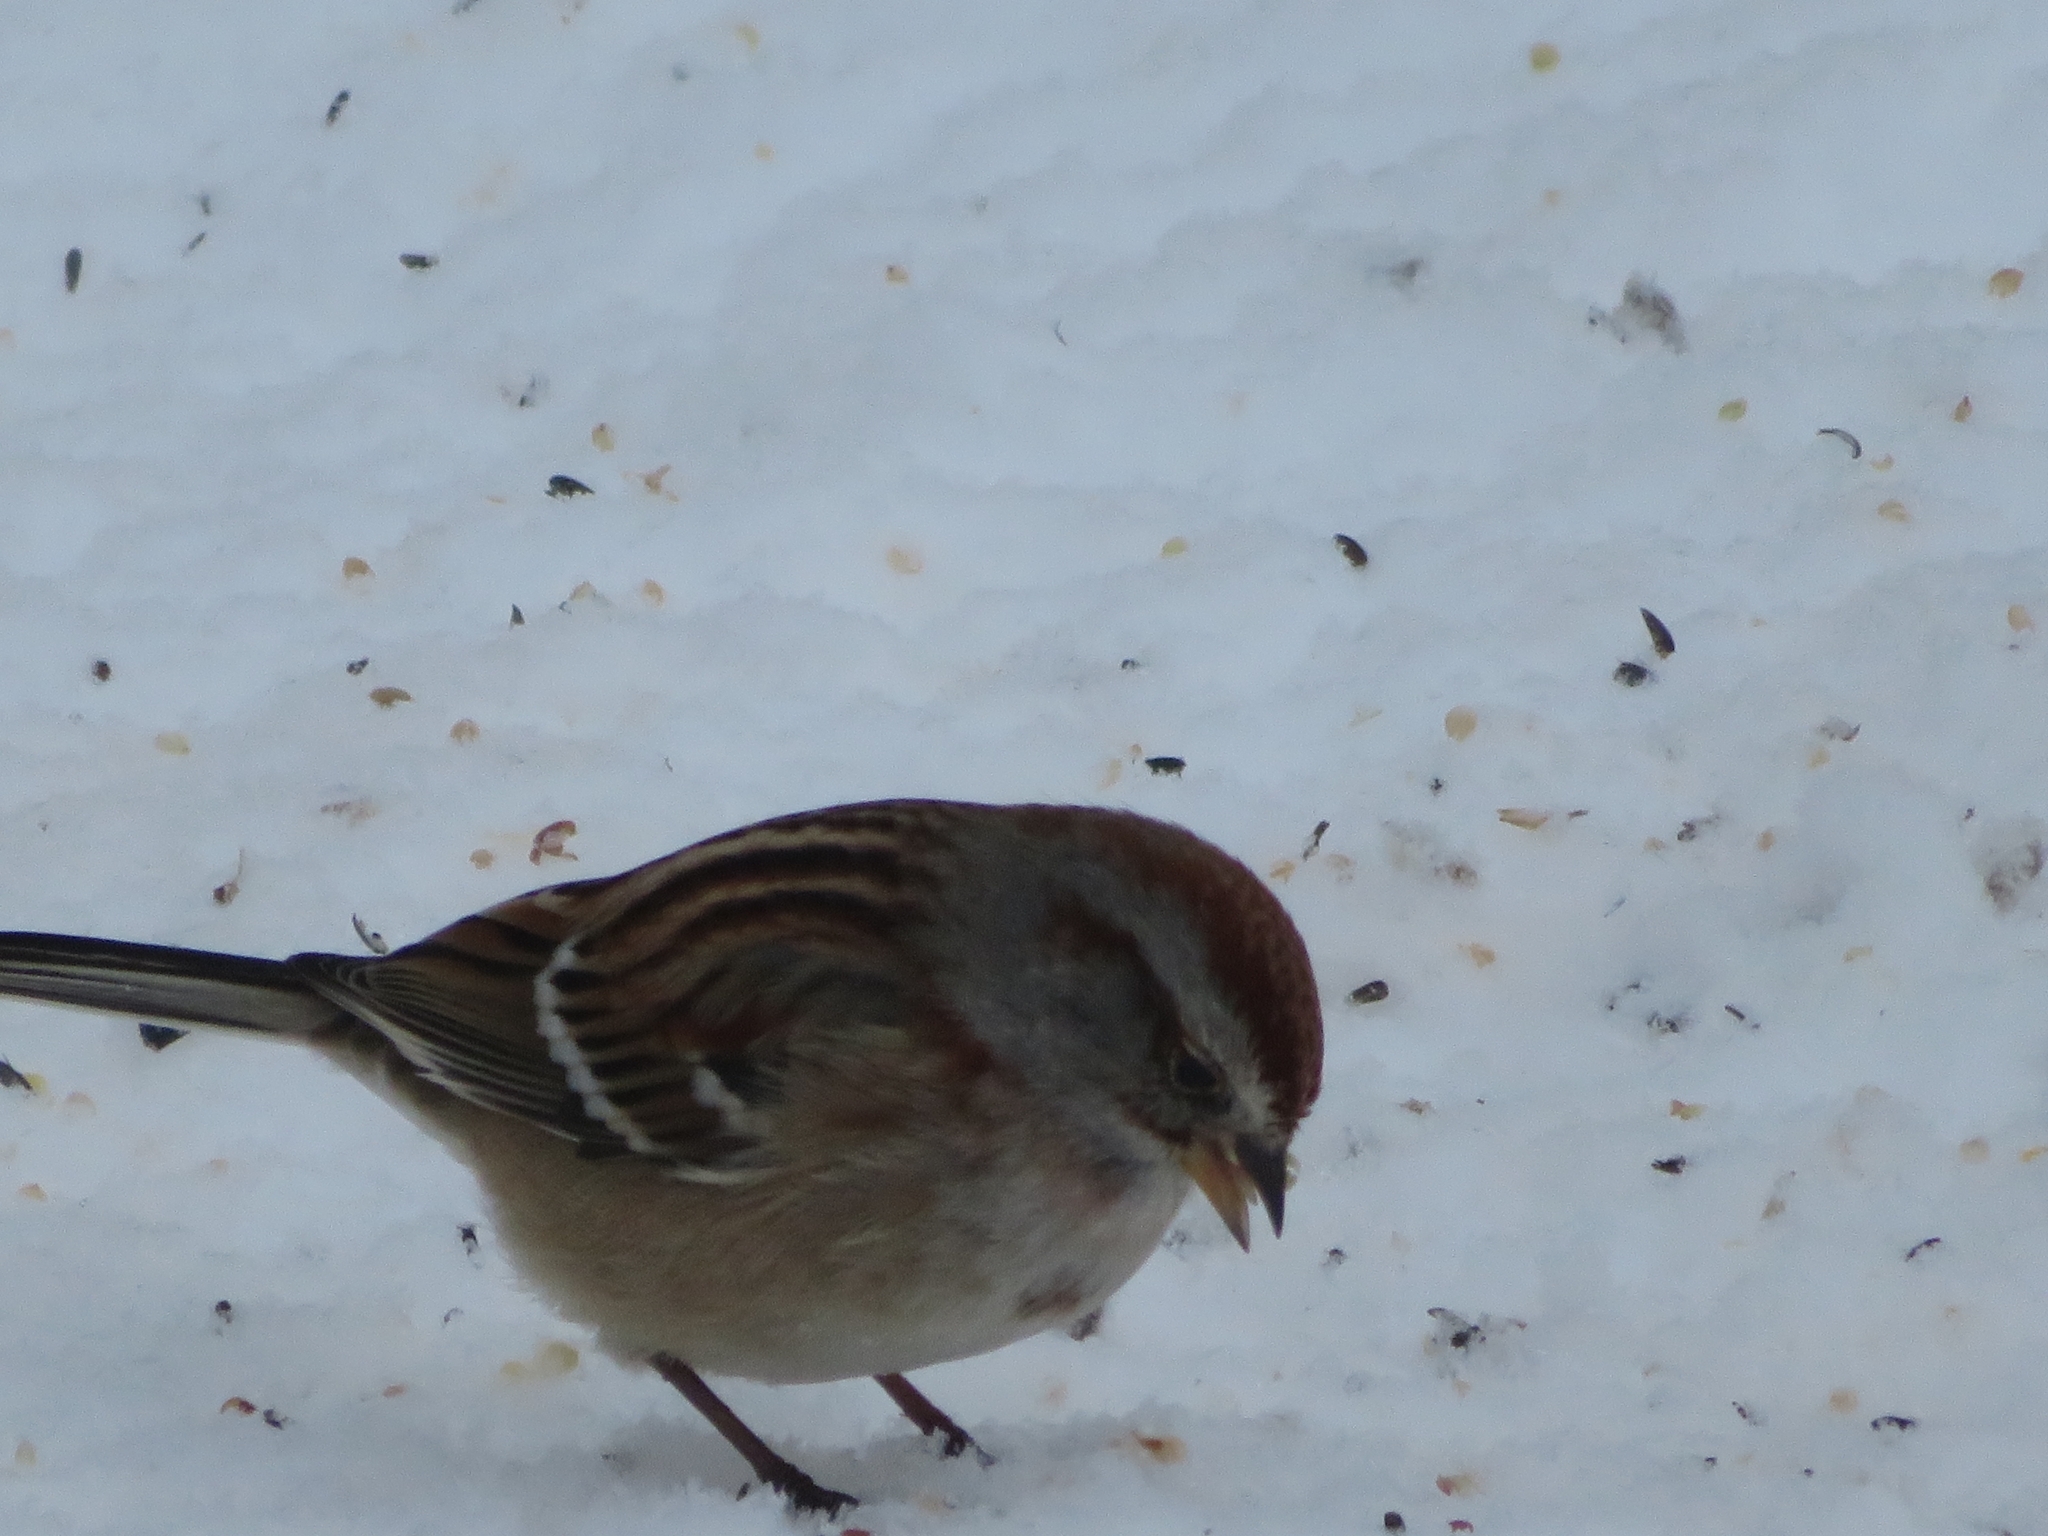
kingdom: Animalia
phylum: Chordata
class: Aves
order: Passeriformes
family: Passerellidae
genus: Spizelloides
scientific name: Spizelloides arborea
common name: American tree sparrow
